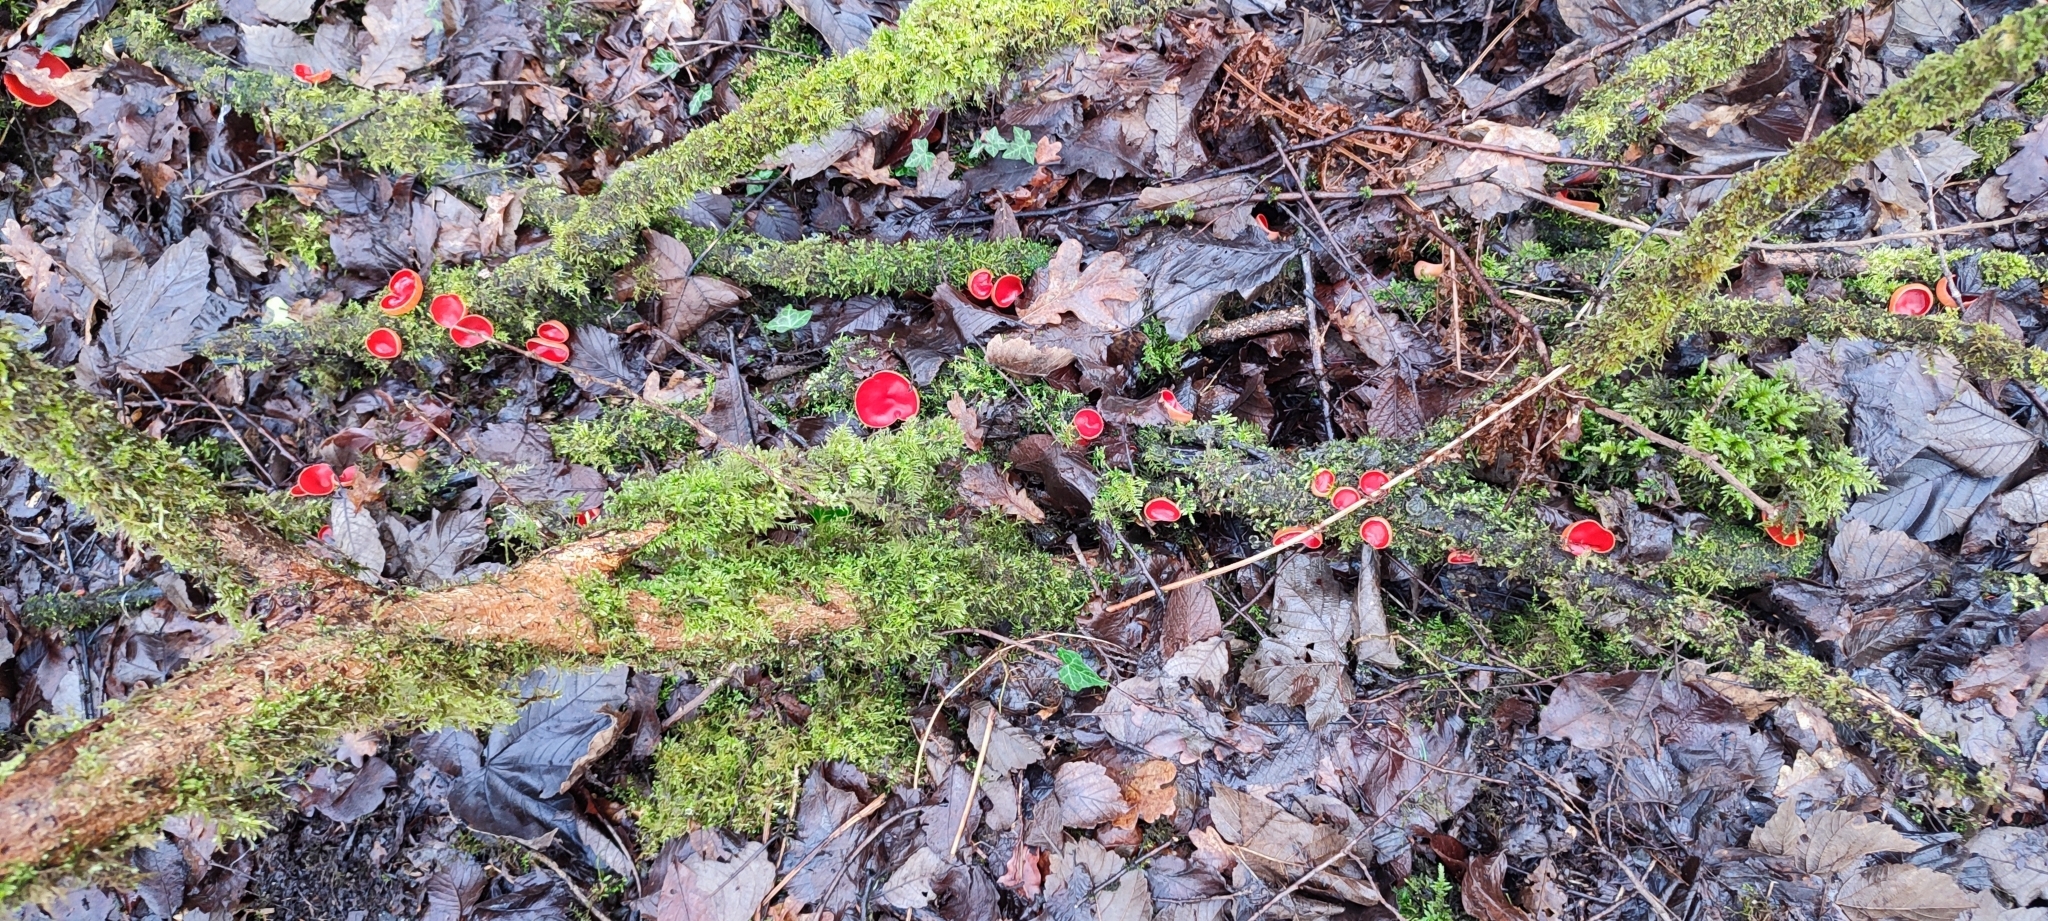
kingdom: Fungi
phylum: Ascomycota
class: Pezizomycetes
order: Pezizales
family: Sarcoscyphaceae
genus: Sarcoscypha
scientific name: Sarcoscypha
